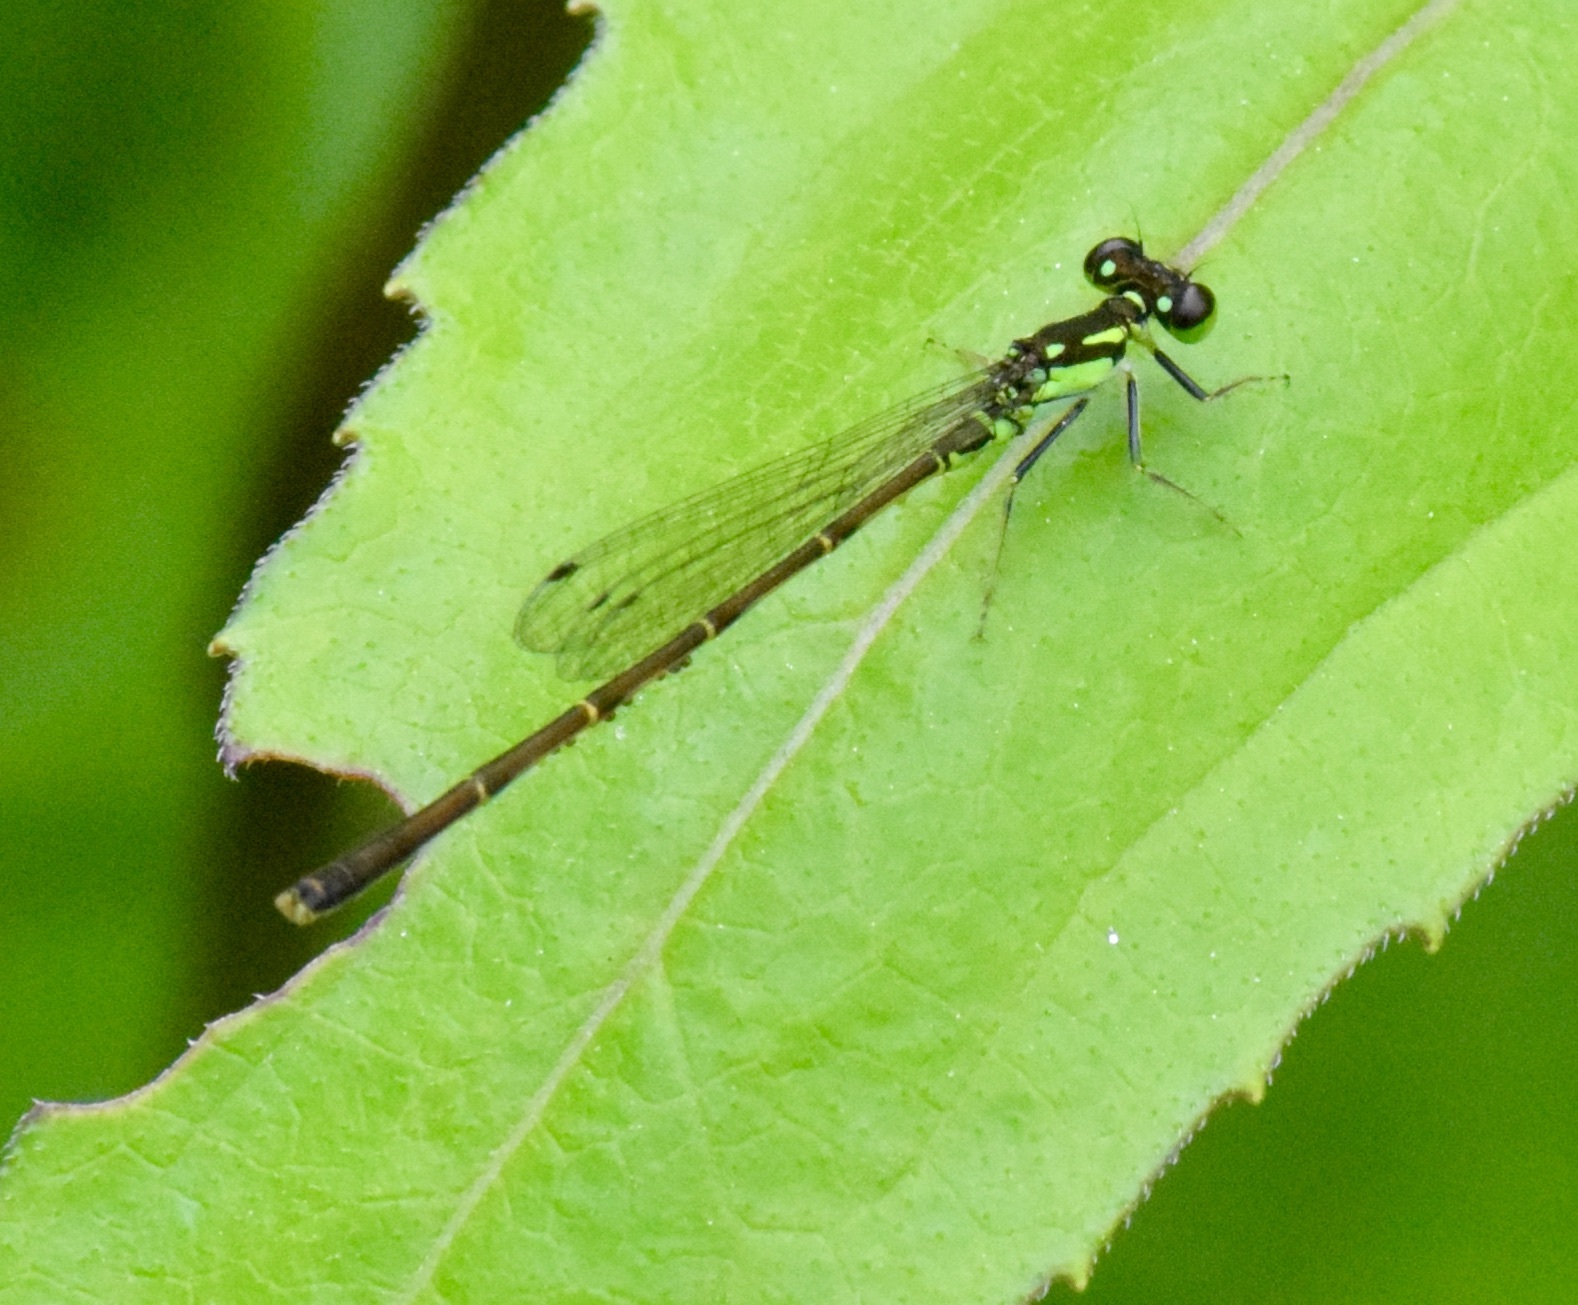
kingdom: Animalia
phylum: Arthropoda
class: Insecta
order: Odonata
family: Coenagrionidae
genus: Ischnura
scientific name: Ischnura posita
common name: Fragile forktail
